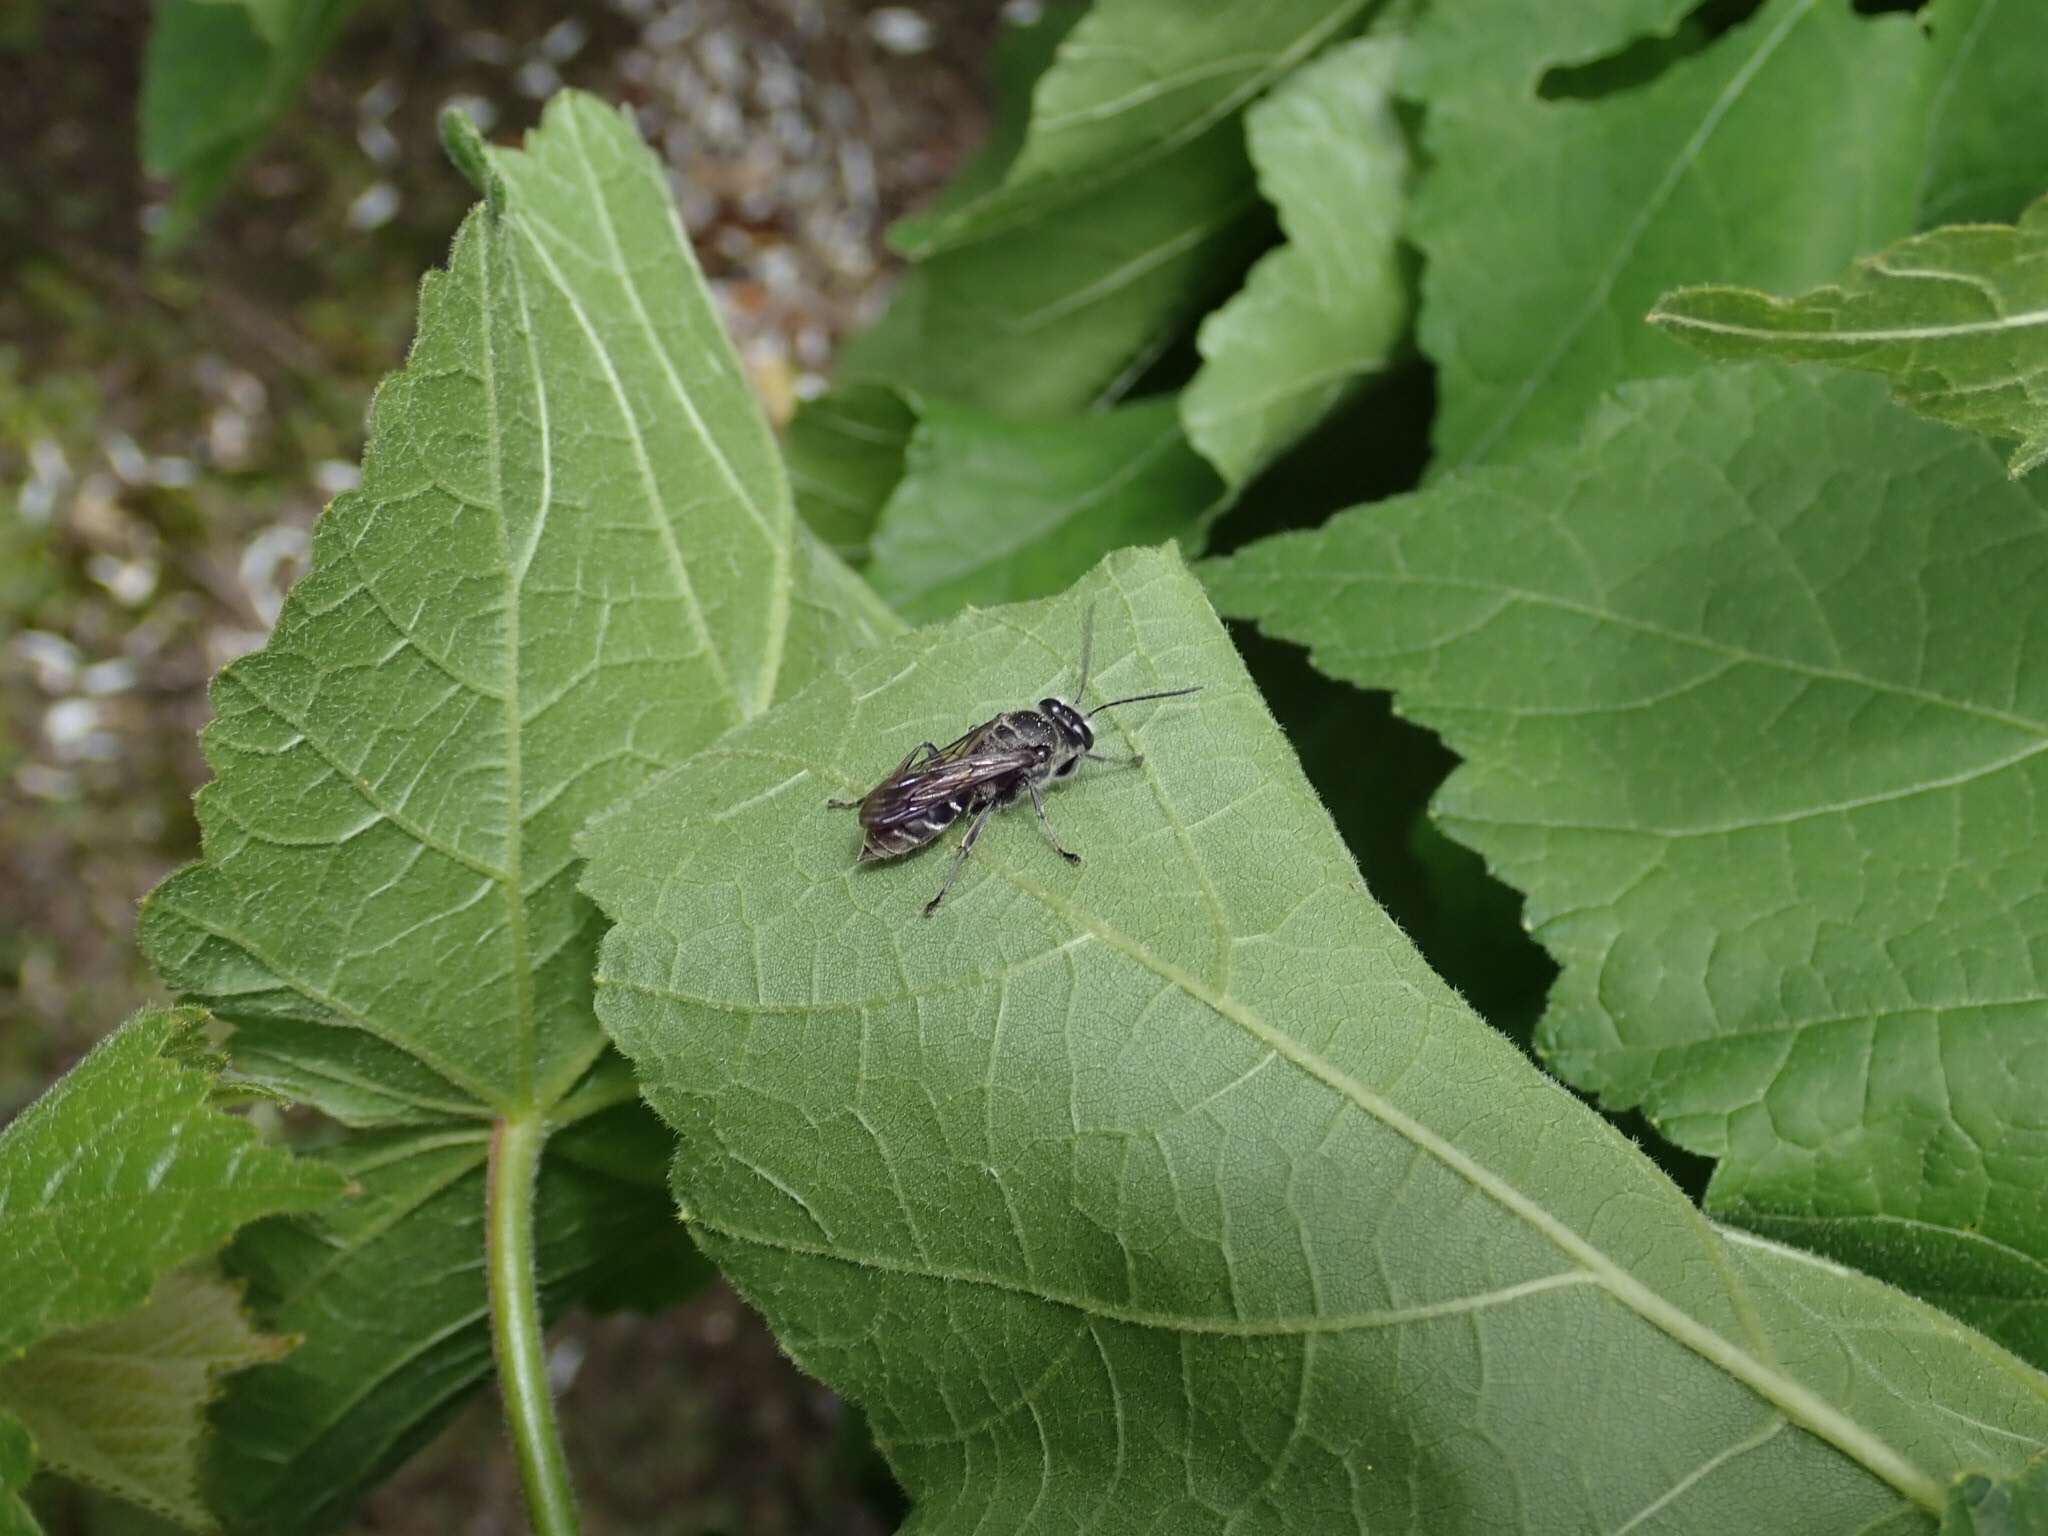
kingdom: Animalia
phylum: Arthropoda
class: Insecta
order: Hymenoptera
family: Crabronidae
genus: Pison
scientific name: Pison spinolae
